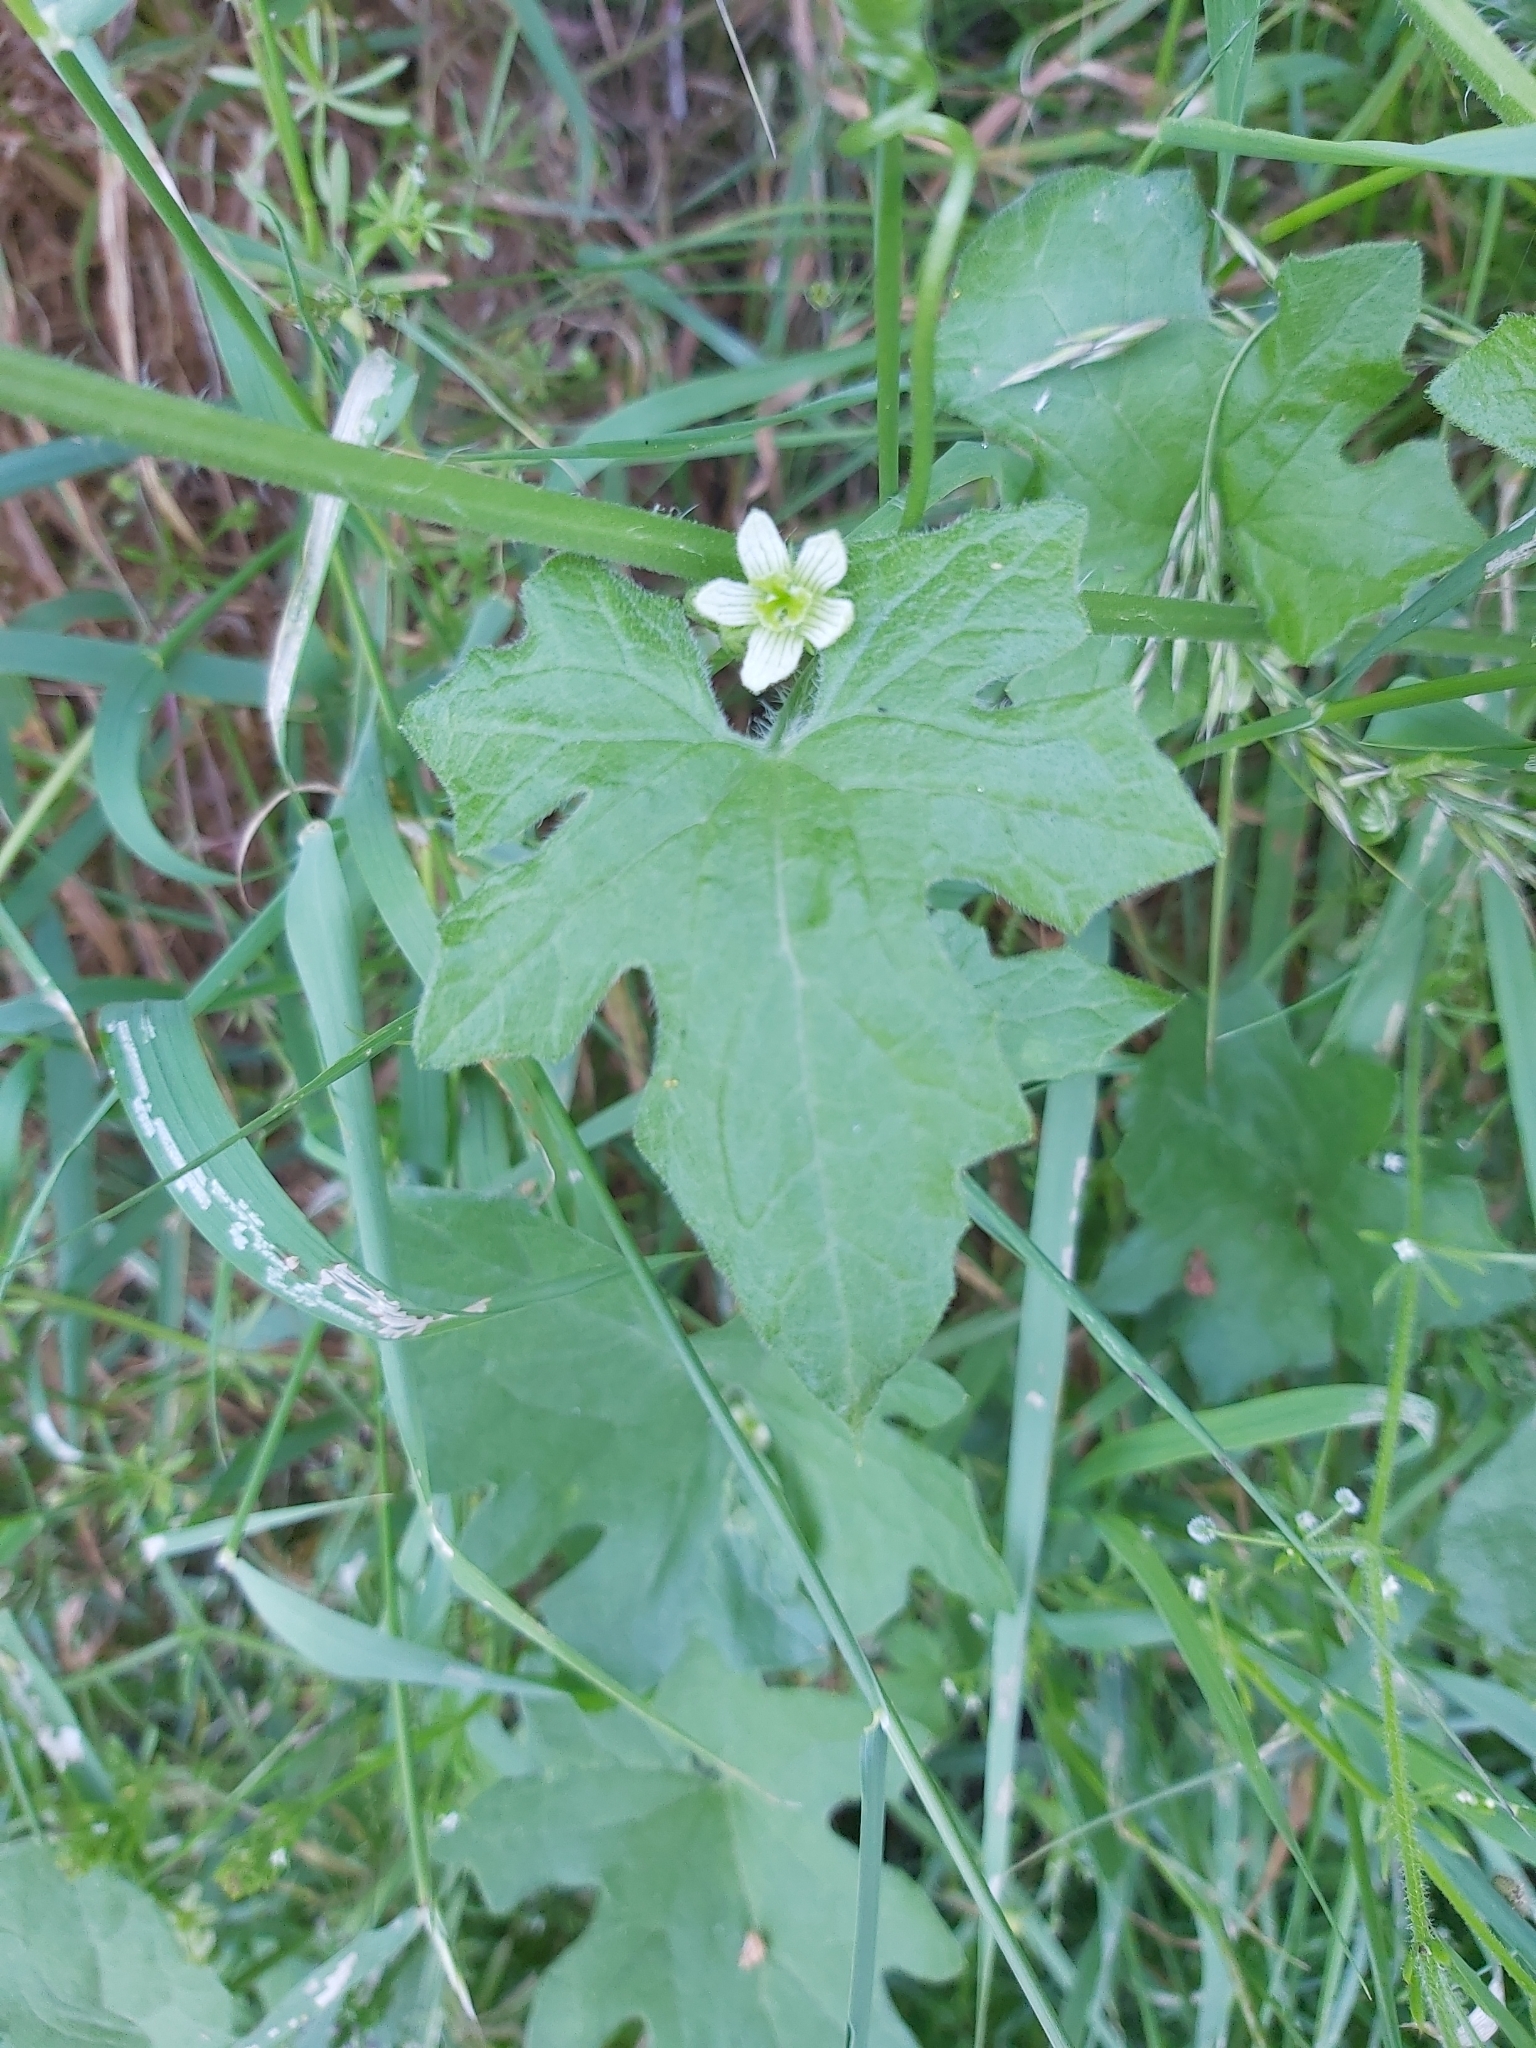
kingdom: Plantae
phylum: Tracheophyta
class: Magnoliopsida
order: Cucurbitales
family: Cucurbitaceae
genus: Bryonia
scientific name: Bryonia cretica
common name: Cretan bryony
